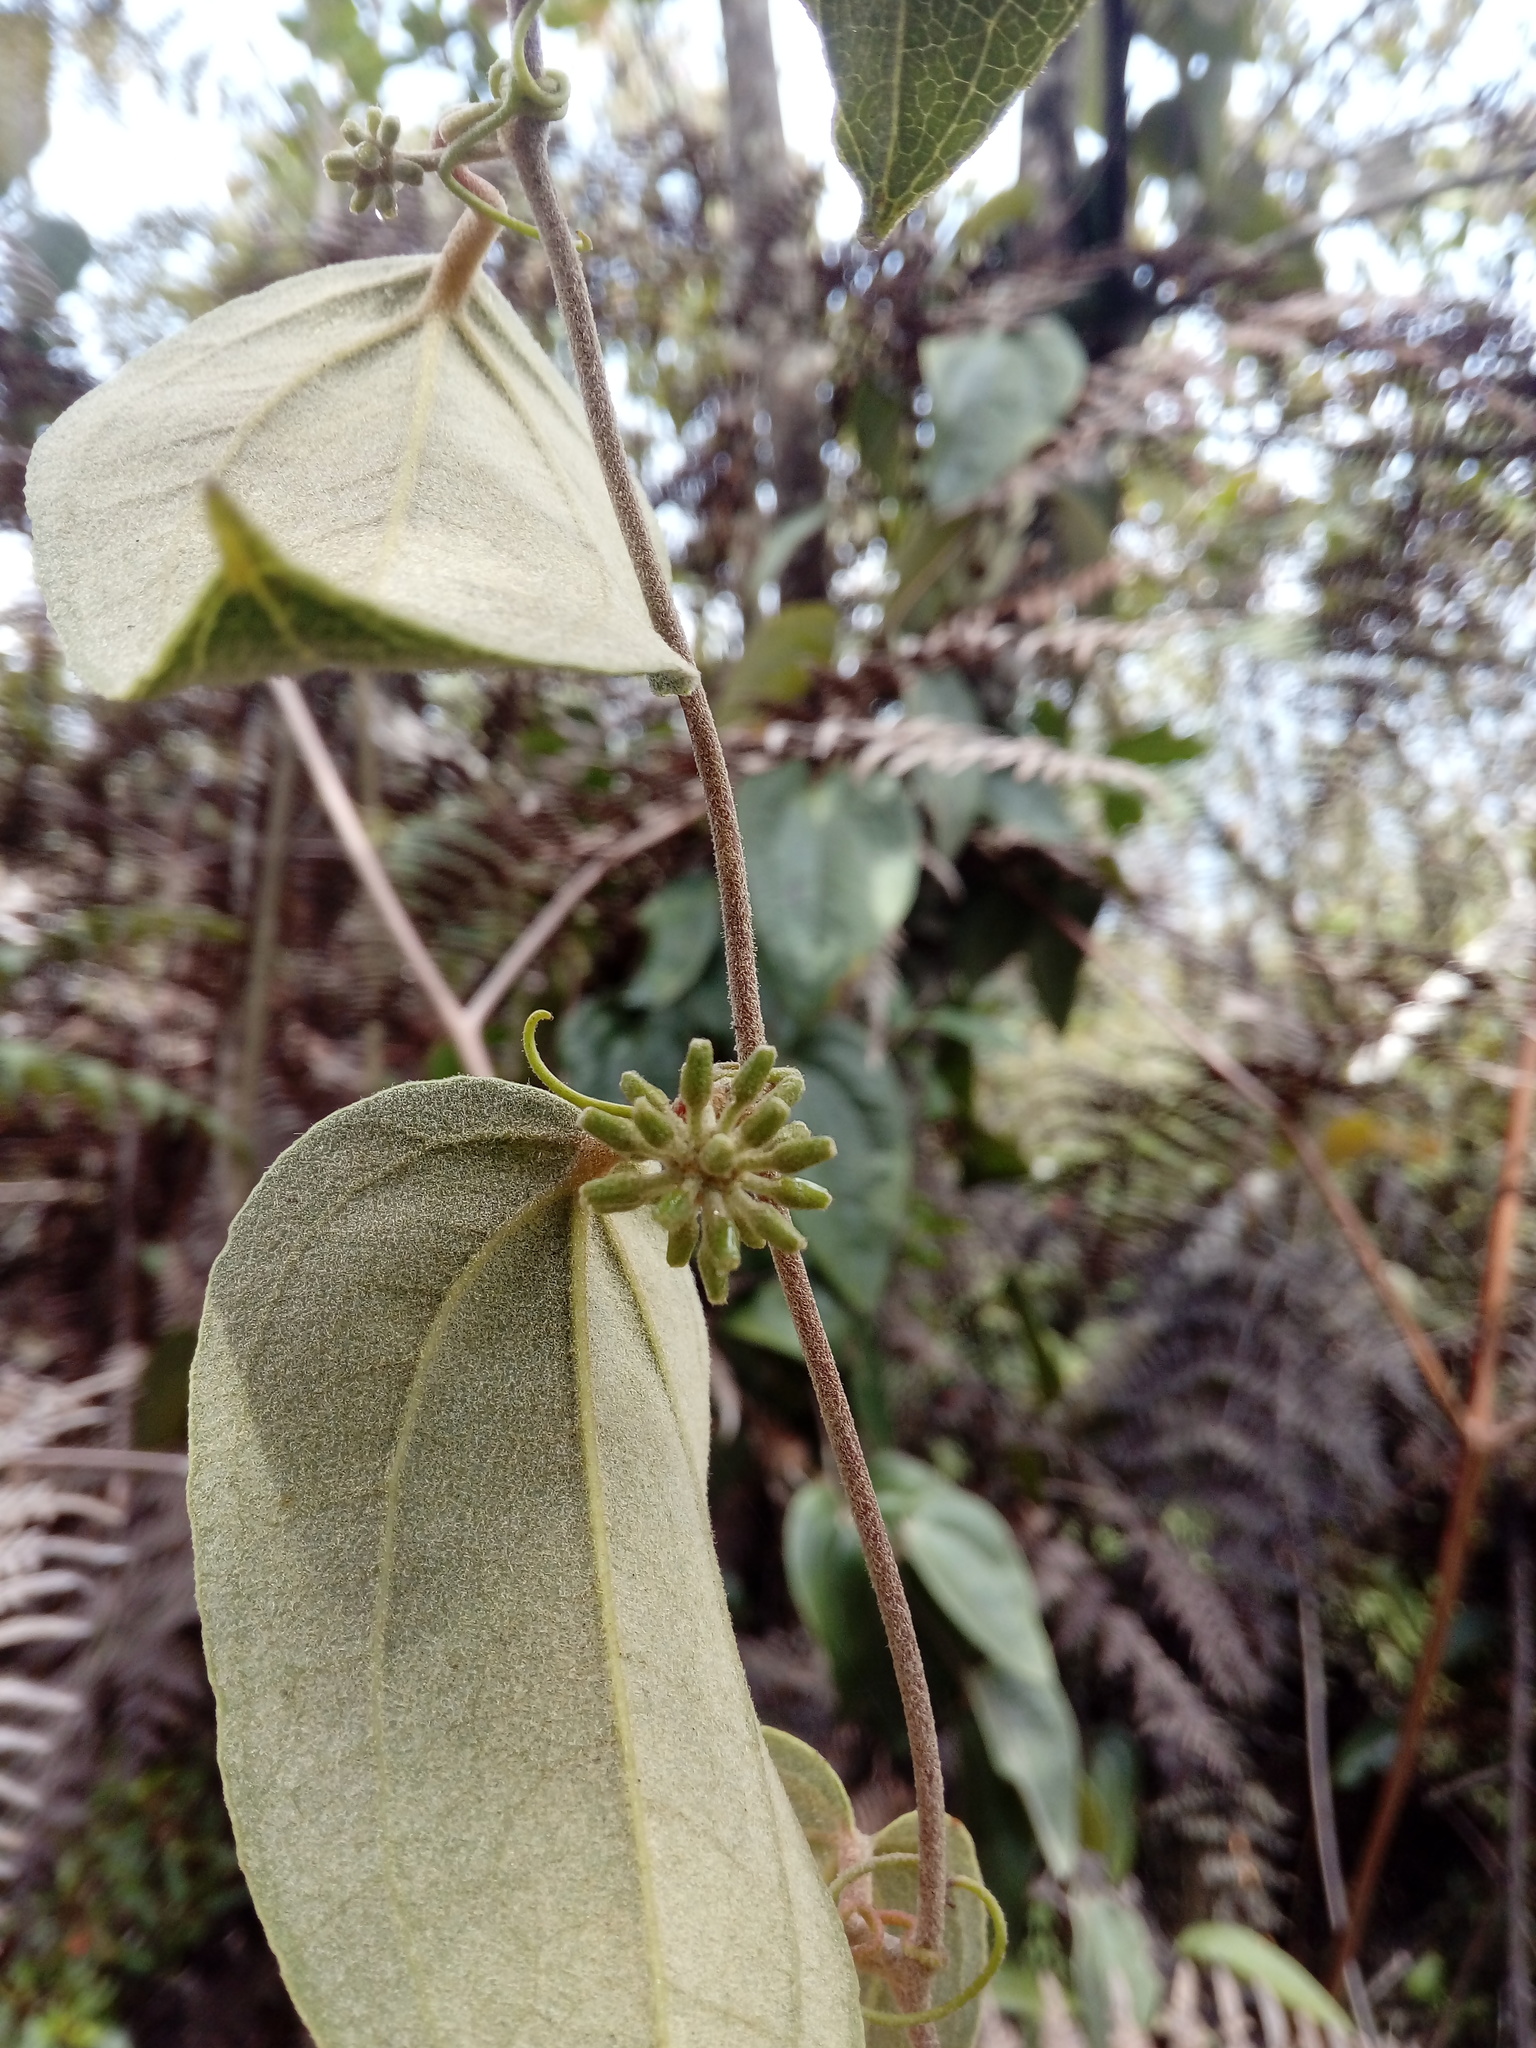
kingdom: Plantae
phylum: Tracheophyta
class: Liliopsida
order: Liliales
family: Smilacaceae
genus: Smilax
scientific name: Smilax tomentosa
